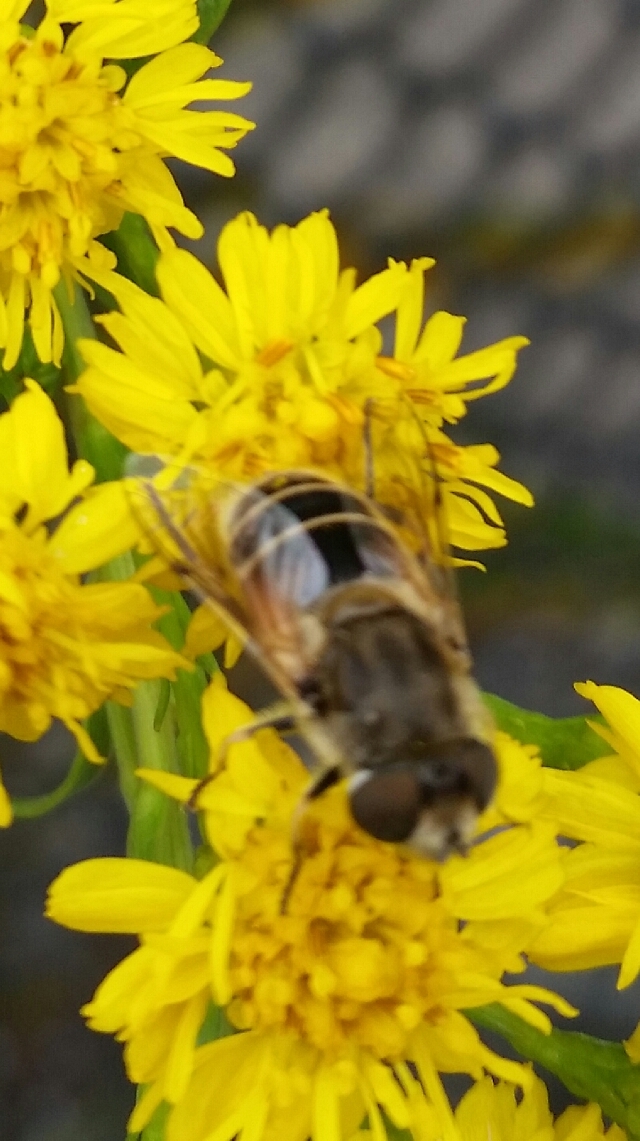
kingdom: Animalia
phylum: Arthropoda
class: Insecta
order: Diptera
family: Syrphidae
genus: Eoseristalis
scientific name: Eoseristalis
